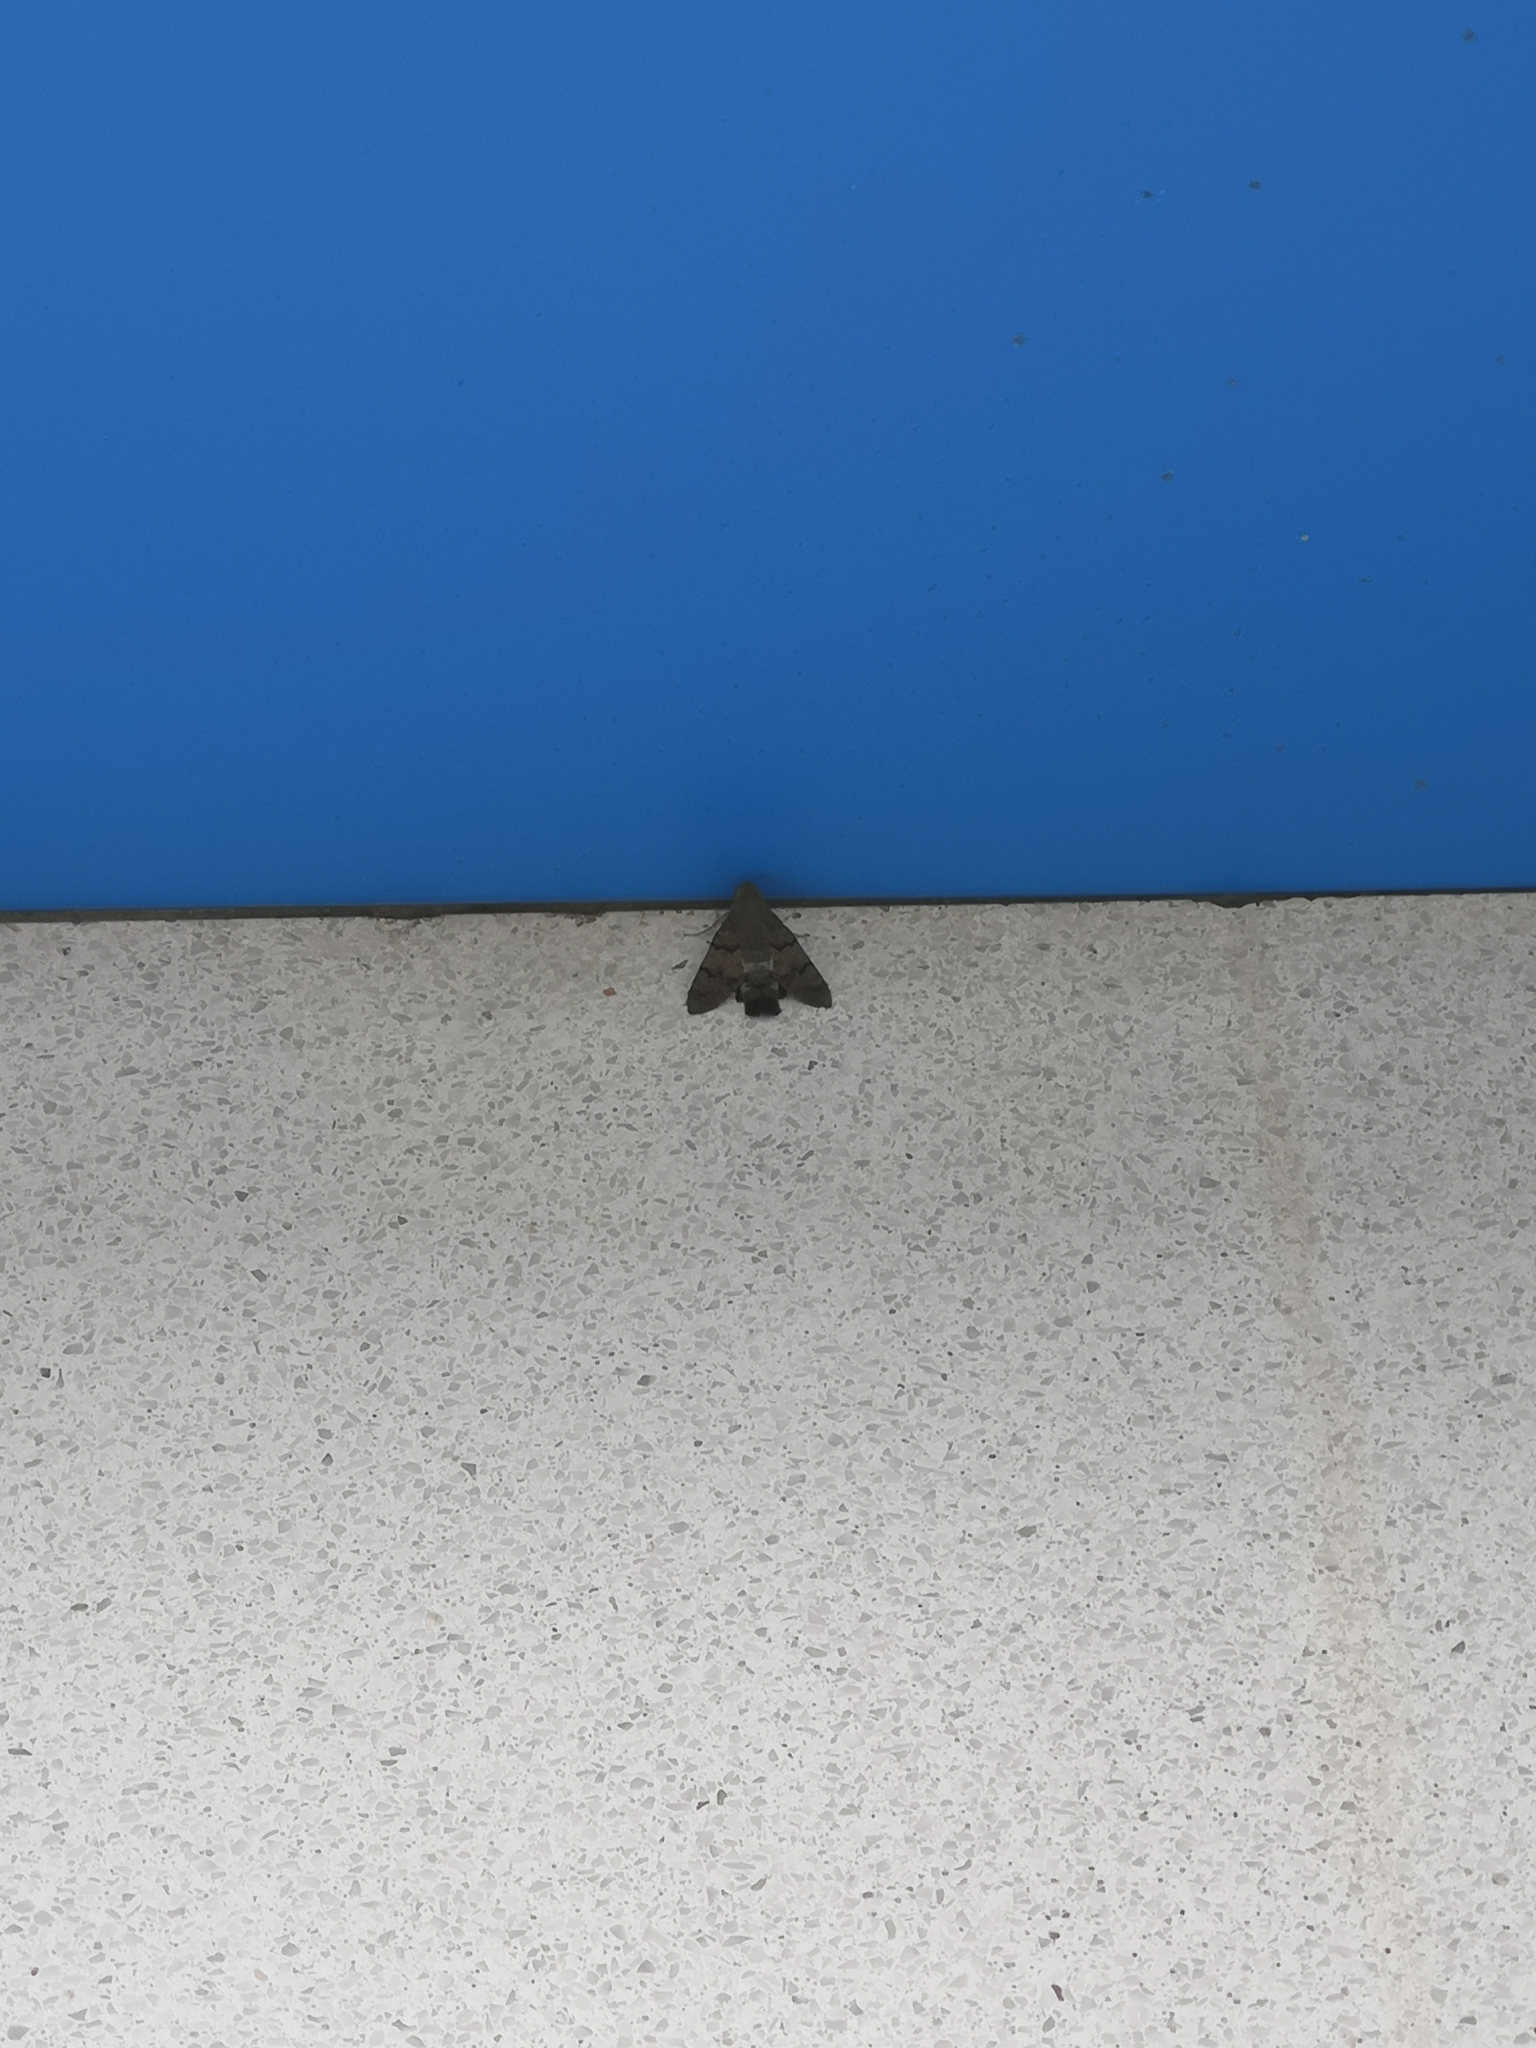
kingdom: Animalia
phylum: Arthropoda
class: Insecta
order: Lepidoptera
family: Sphingidae
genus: Macroglossum
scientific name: Macroglossum stellatarum
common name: Humming-bird hawk-moth
